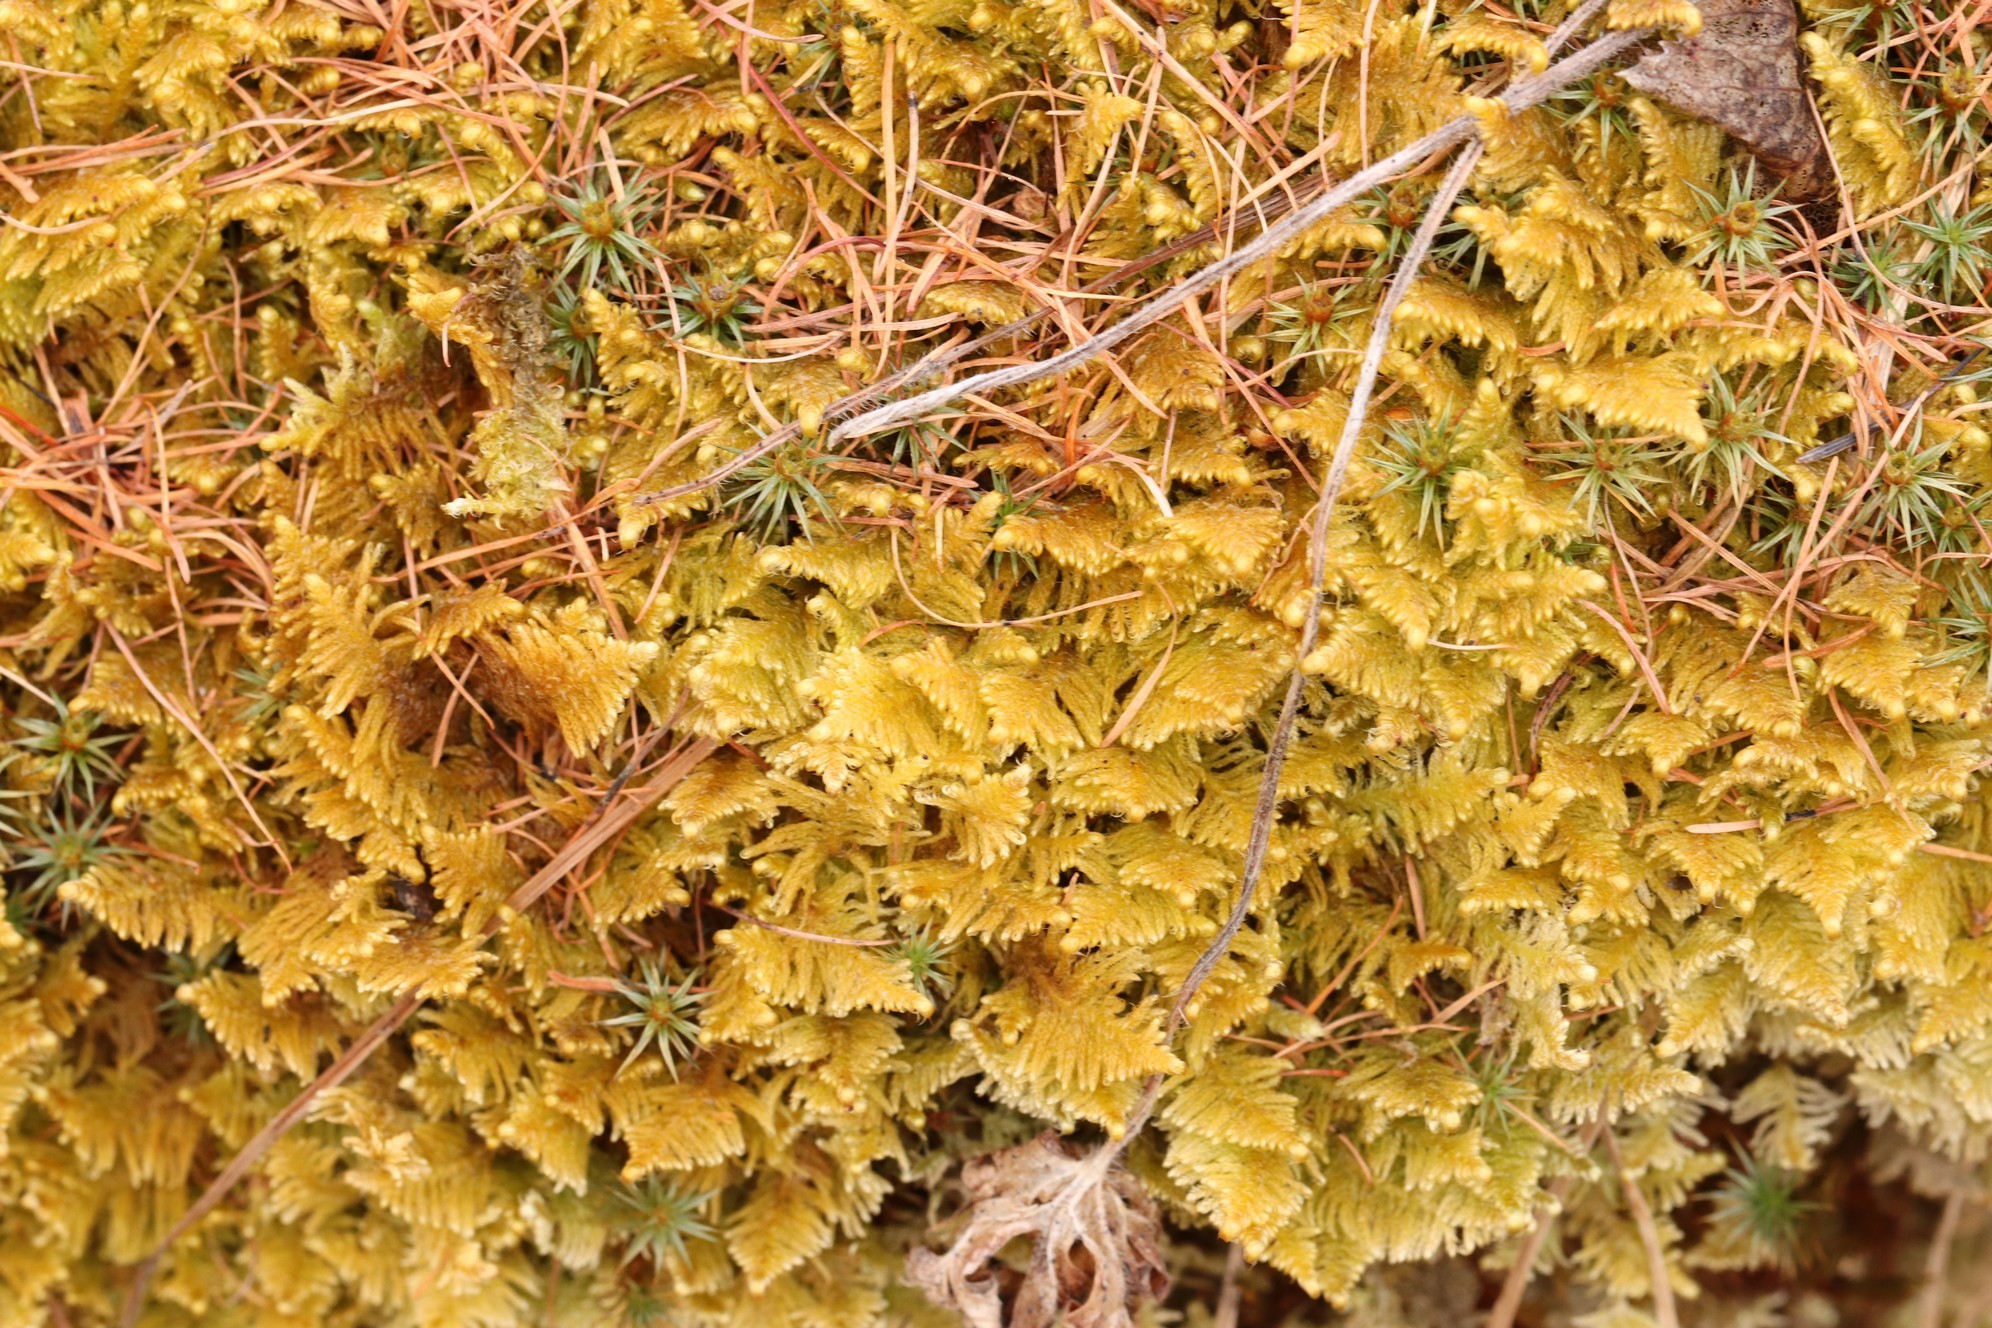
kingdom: Plantae
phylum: Bryophyta
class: Bryopsida
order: Hypnales
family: Pylaisiaceae
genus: Ptilium
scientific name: Ptilium crista-castrensis
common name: Knight's plume moss
